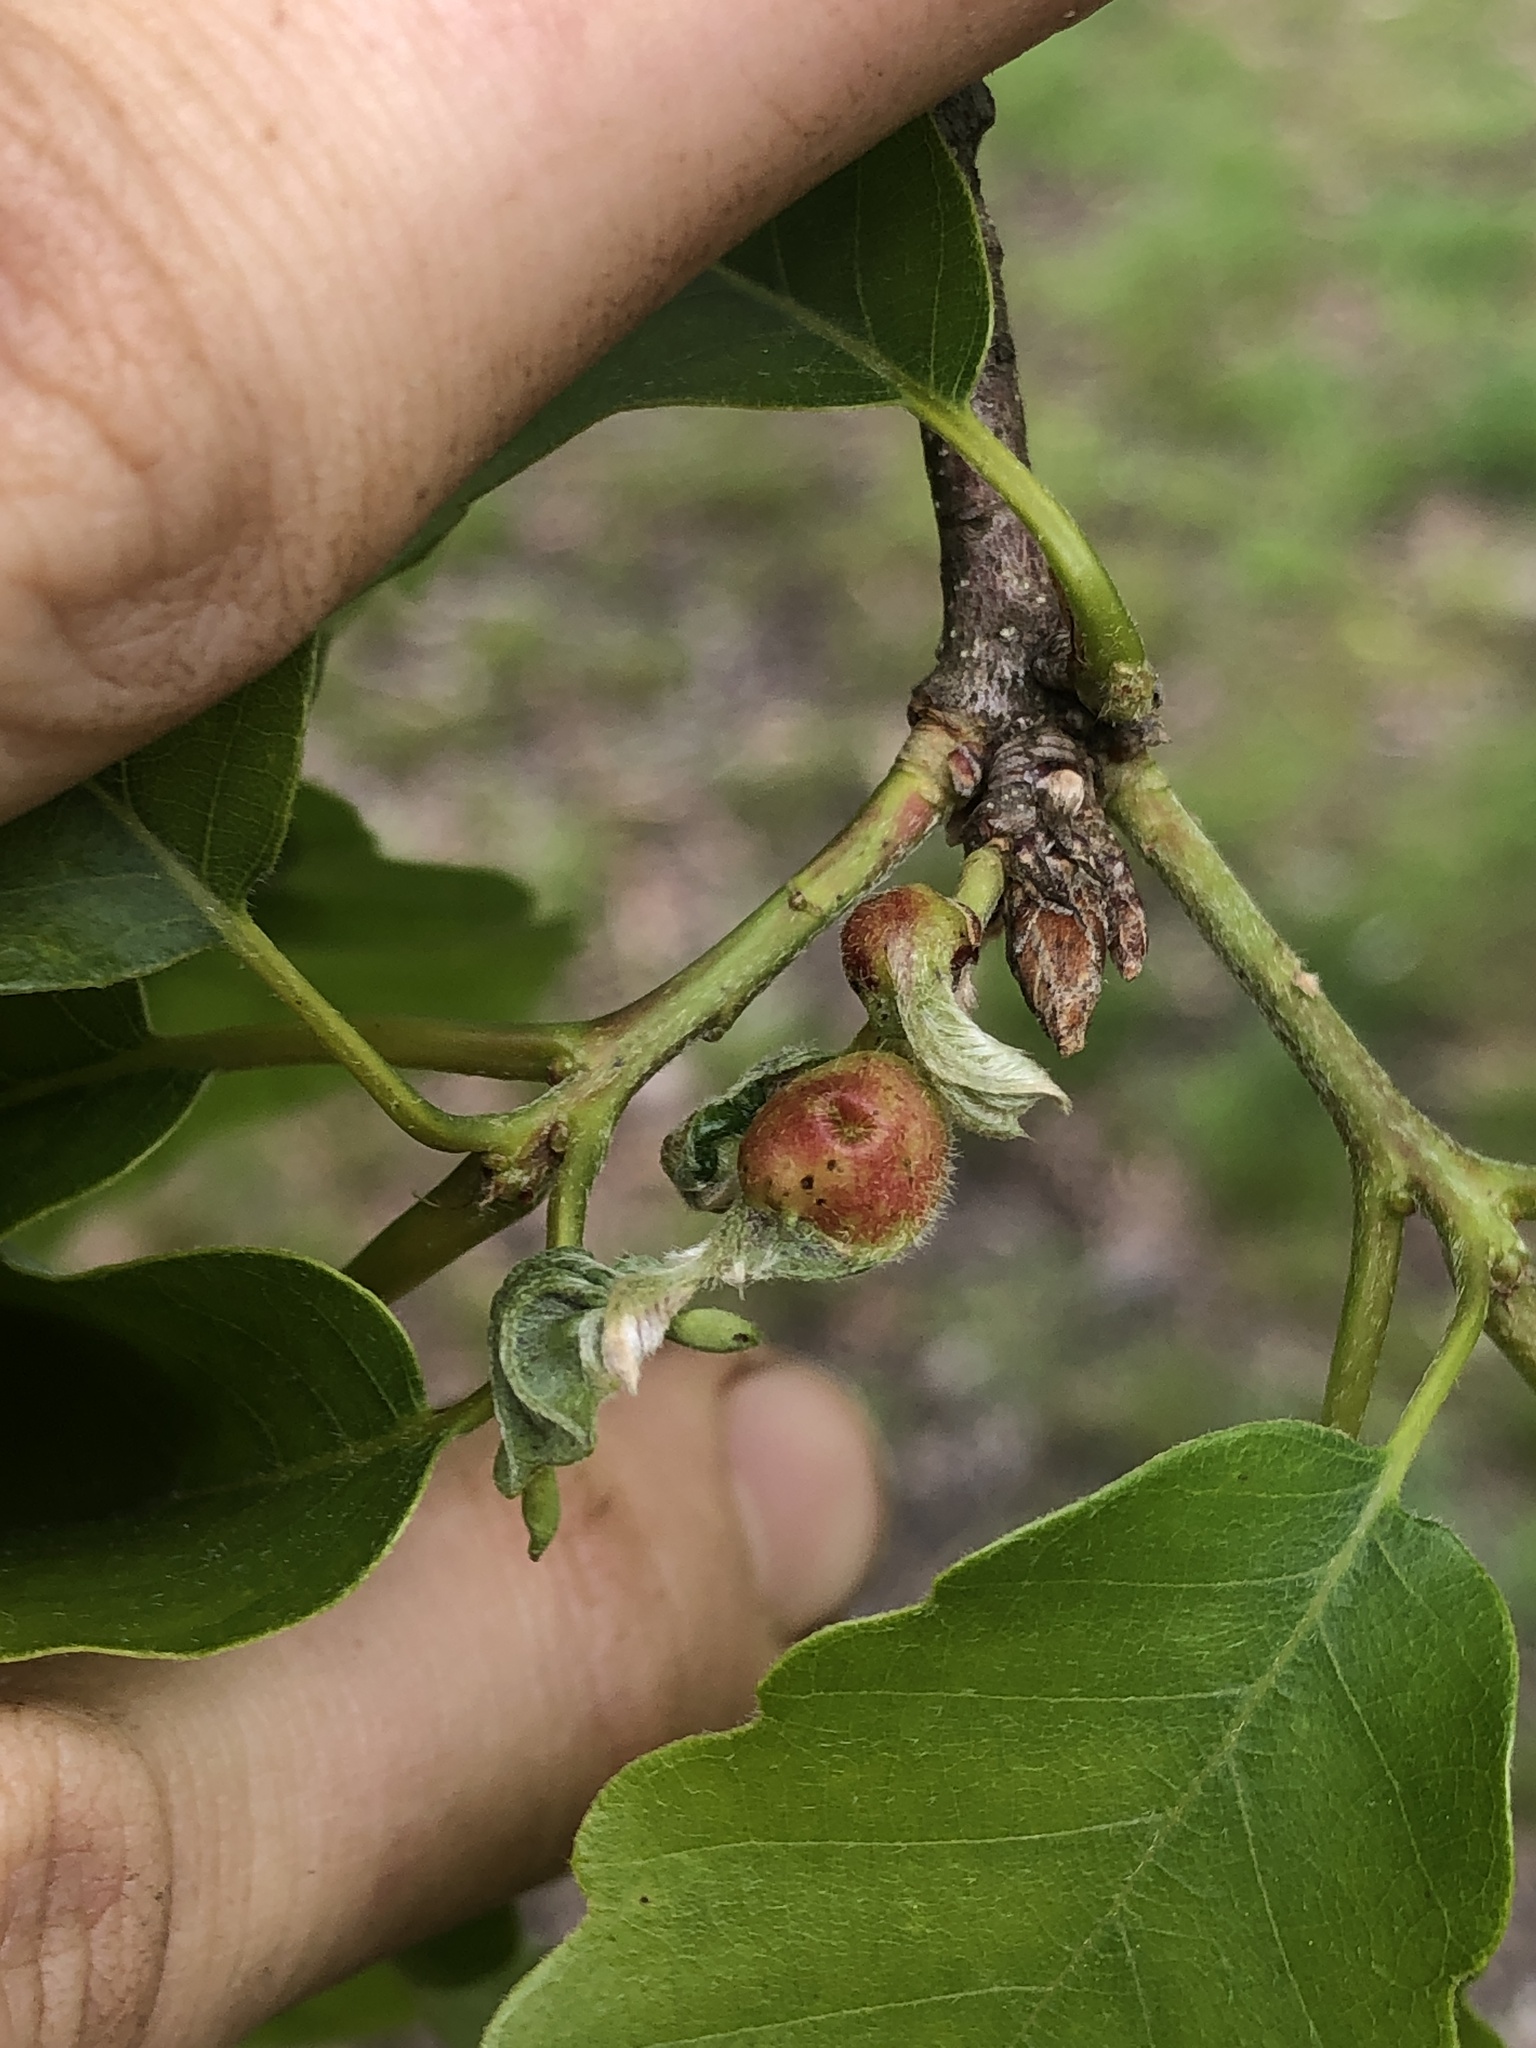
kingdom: Animalia
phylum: Arthropoda
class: Insecta
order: Hymenoptera
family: Cynipidae
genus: Andricus
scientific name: Andricus
